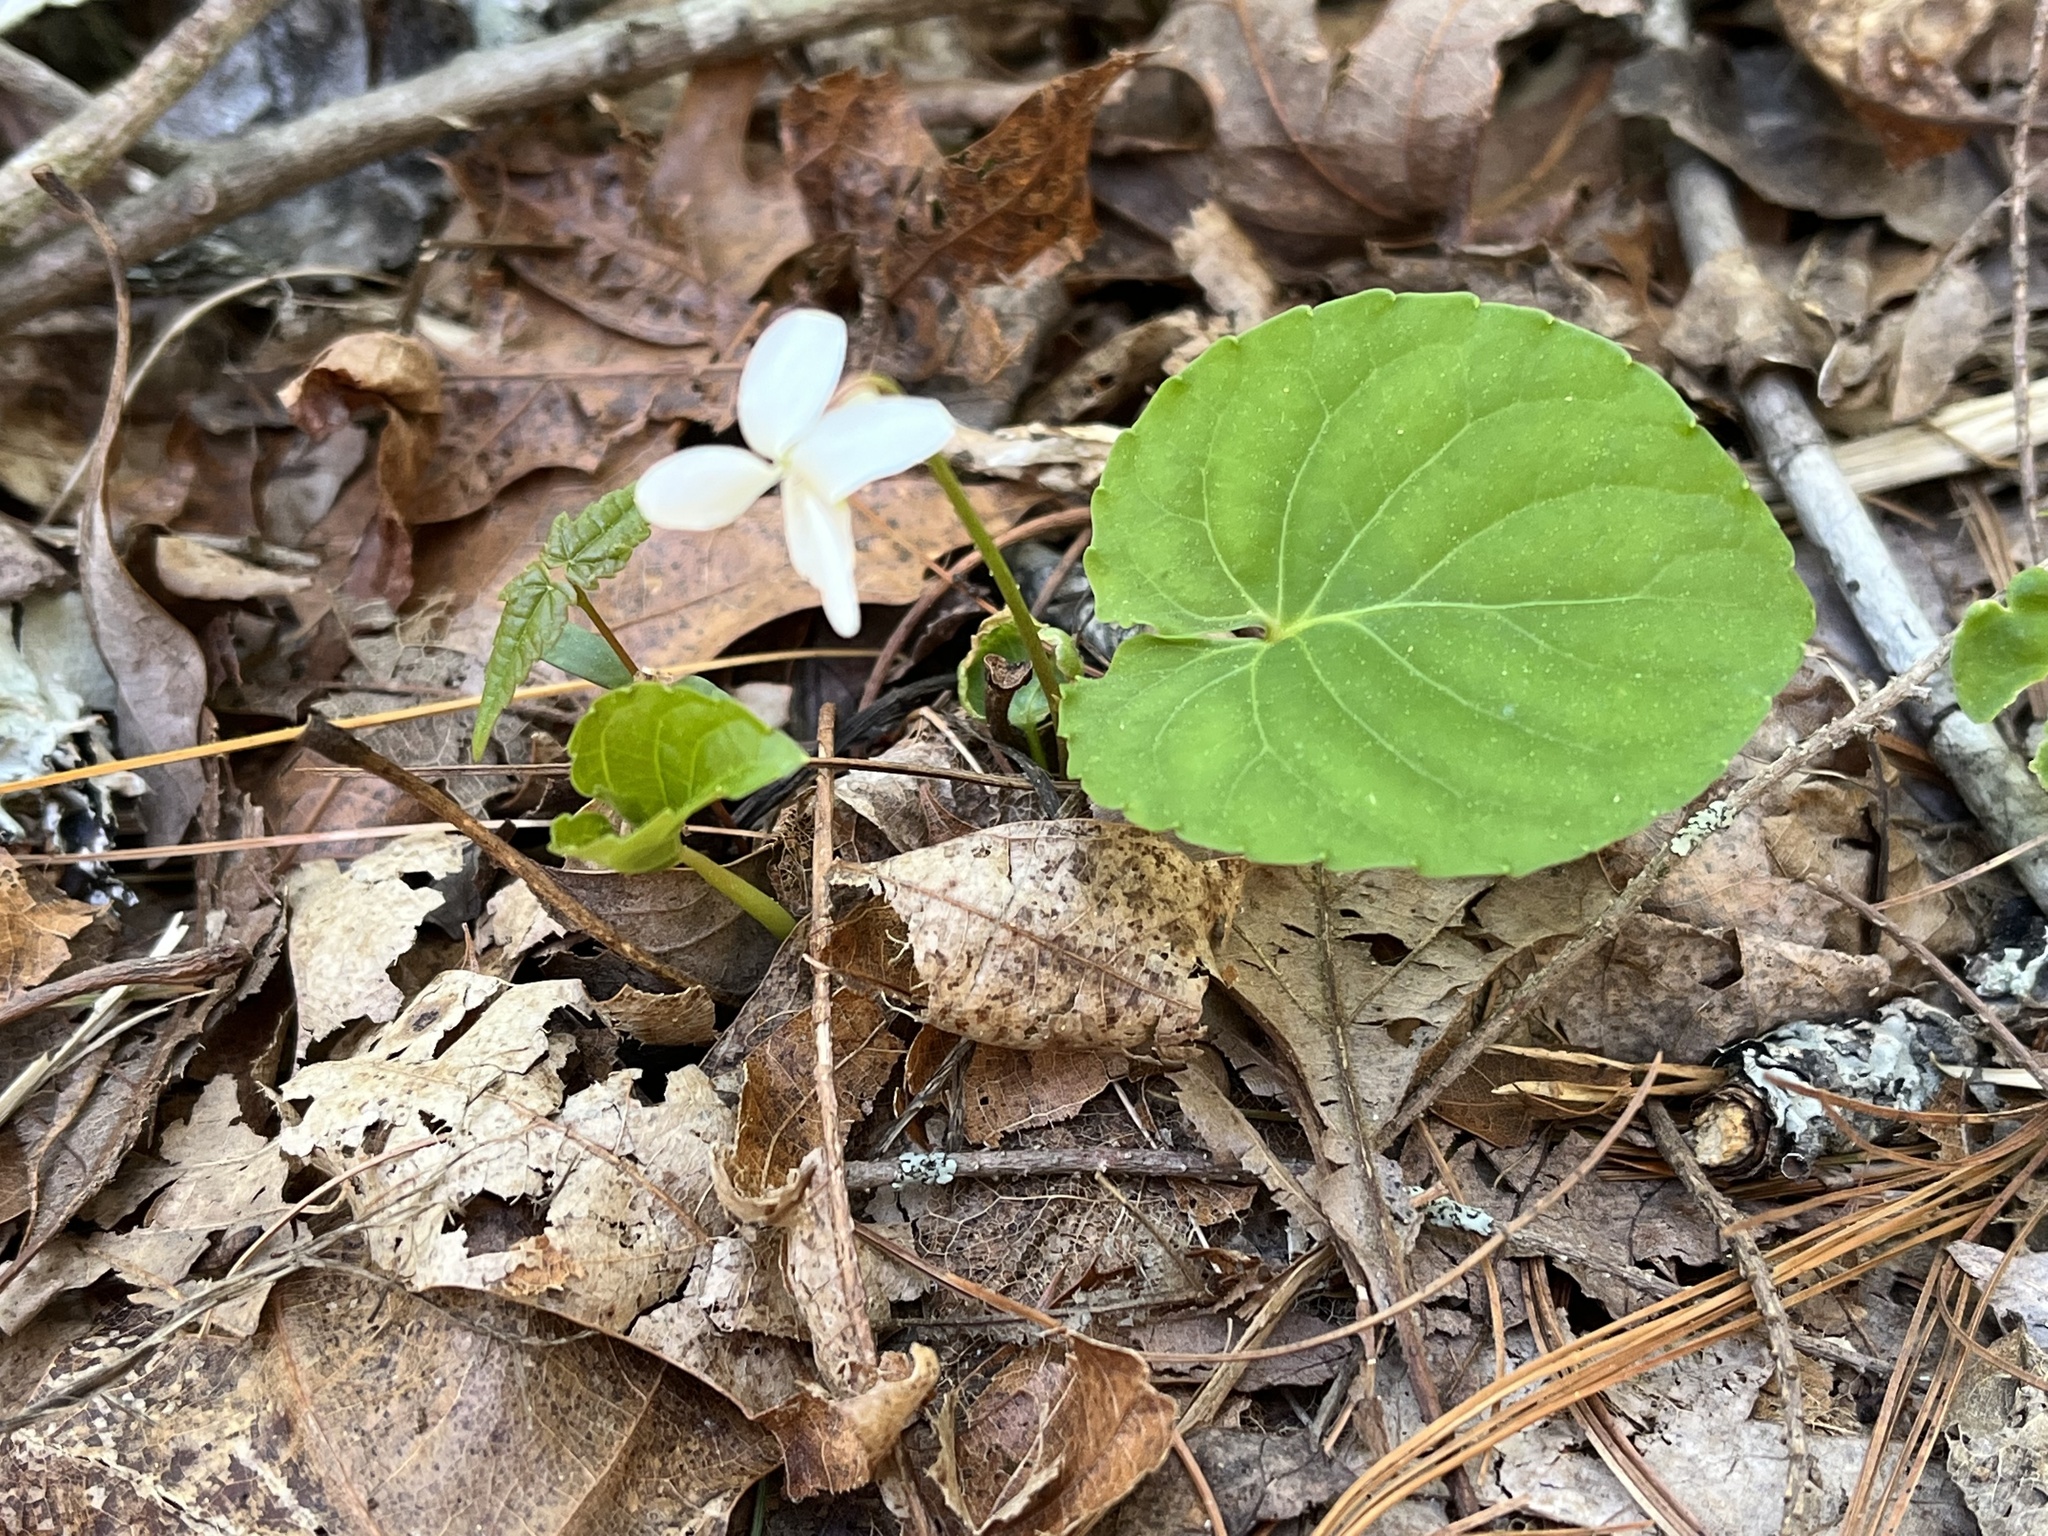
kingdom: Plantae
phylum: Tracheophyta
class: Magnoliopsida
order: Malpighiales
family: Violaceae
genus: Viola
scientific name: Viola blanda
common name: Sweet white violet
